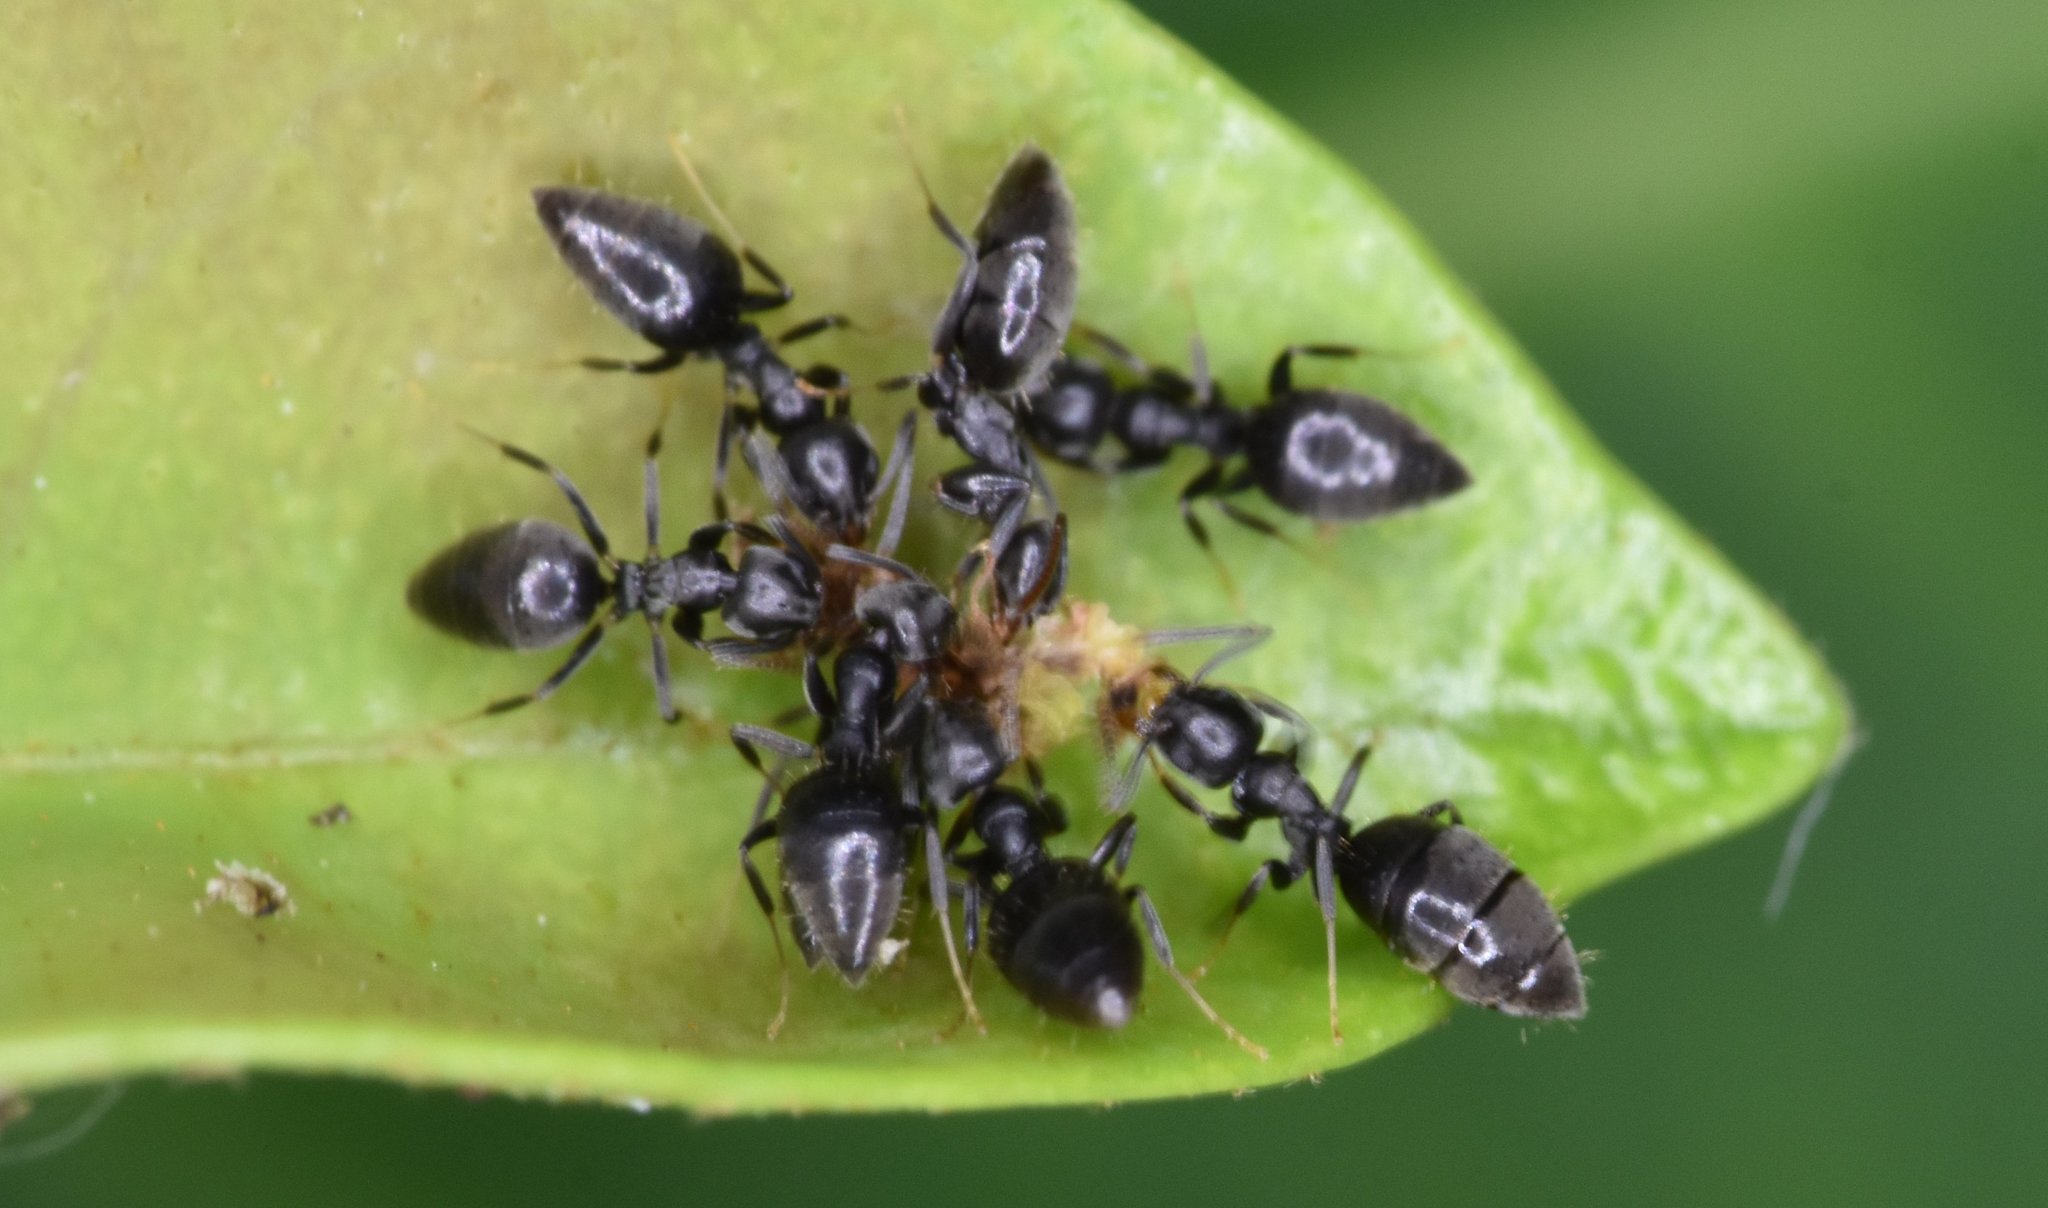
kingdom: Animalia
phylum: Arthropoda
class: Insecta
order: Hymenoptera
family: Formicidae
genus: Technomyrmex
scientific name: Technomyrmex difficilis
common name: Ant
